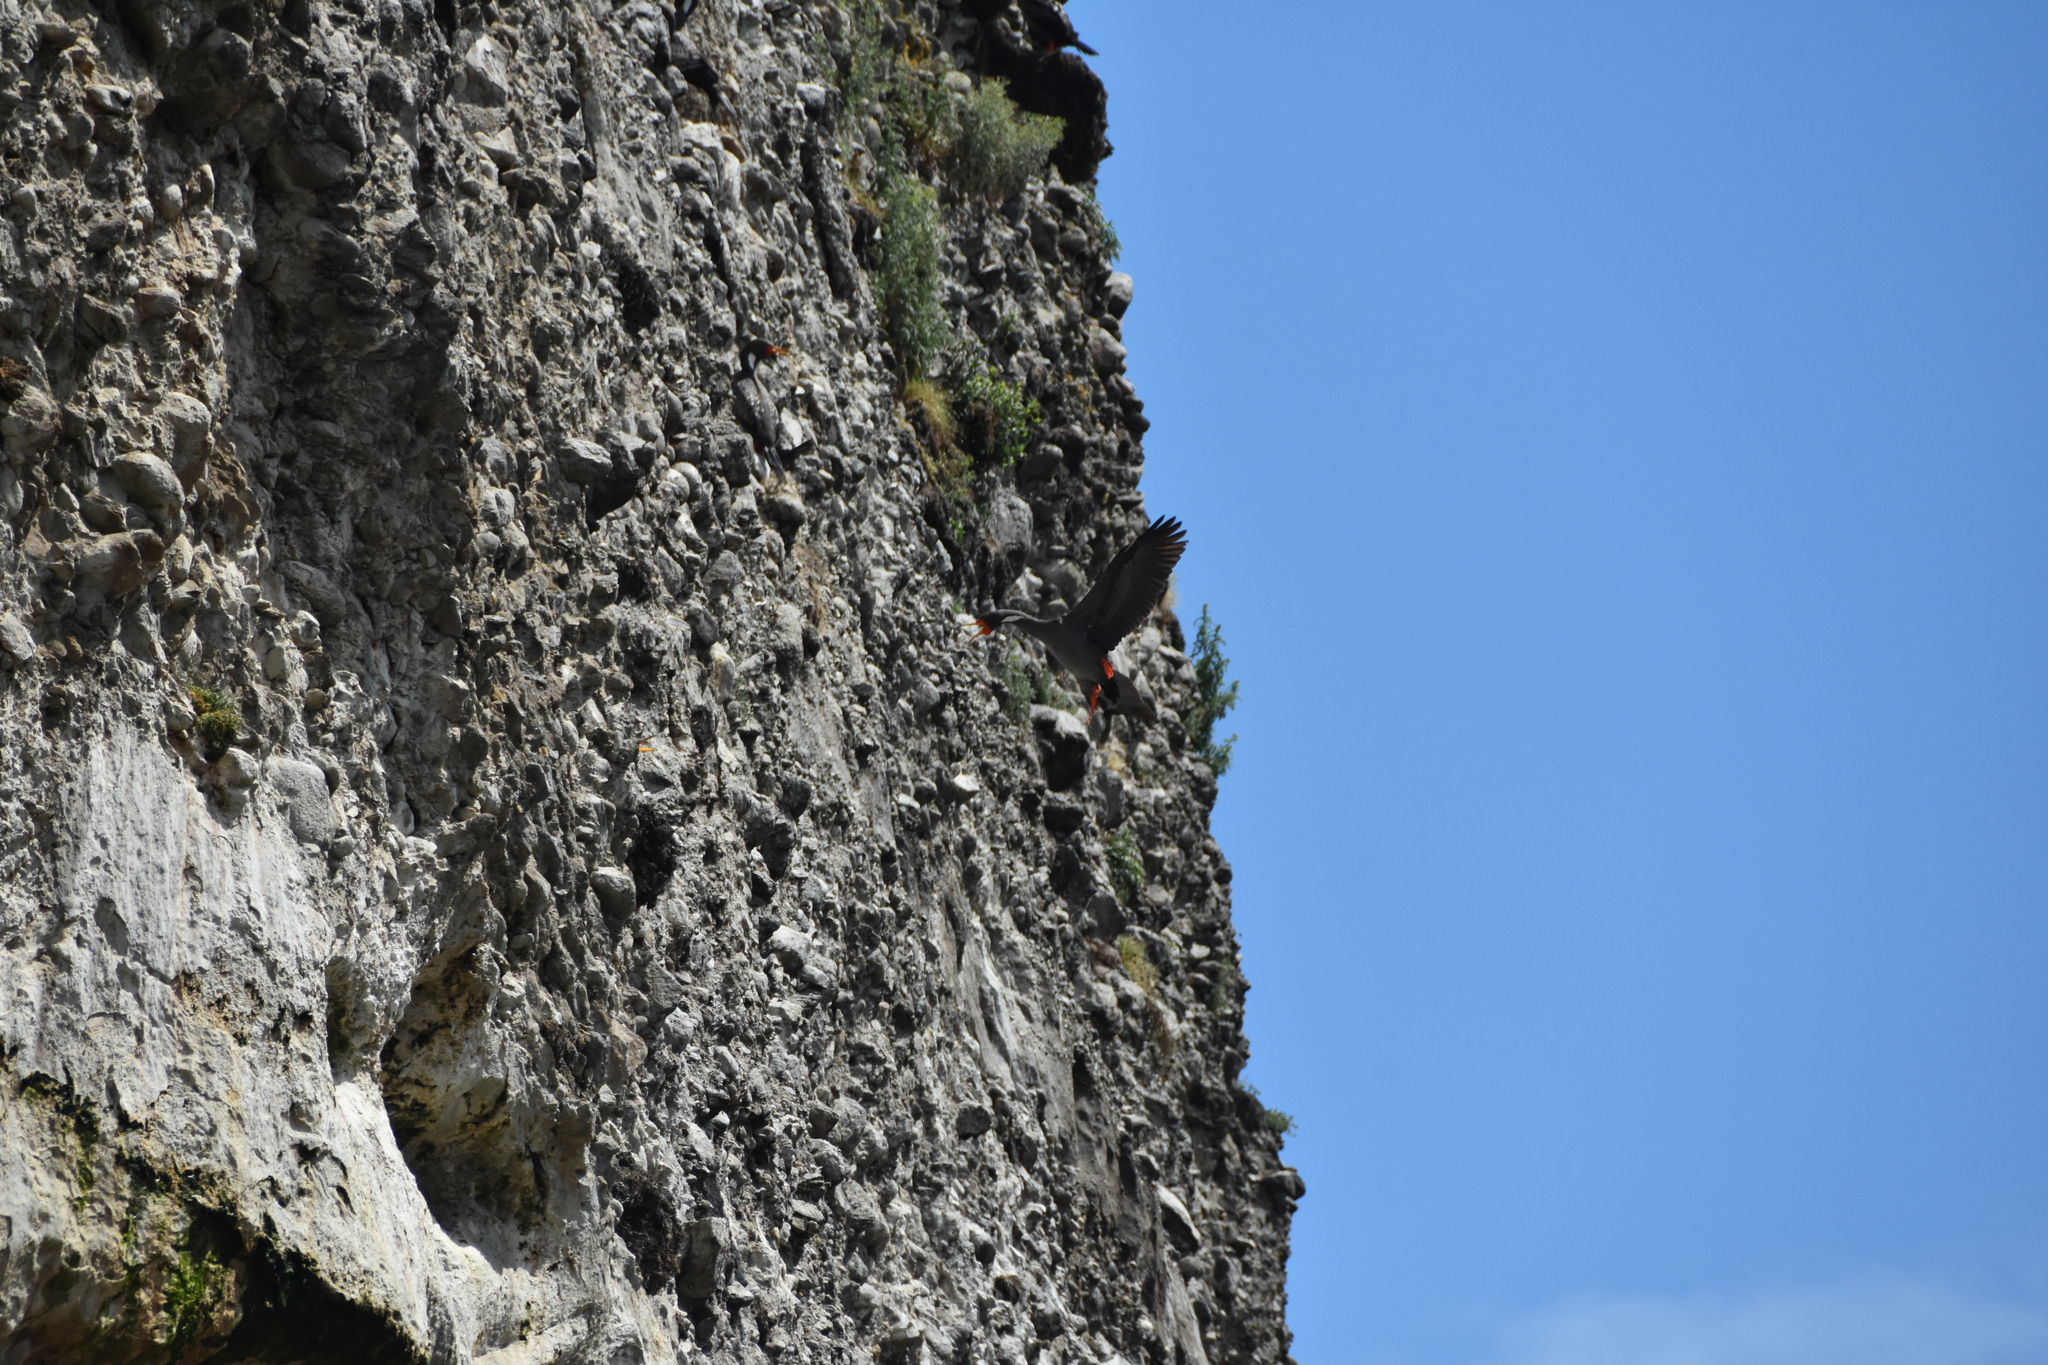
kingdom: Animalia
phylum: Chordata
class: Aves
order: Suliformes
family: Phalacrocoracidae
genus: Phalacrocorax
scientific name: Phalacrocorax gaimardi
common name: Red-legged cormorant
